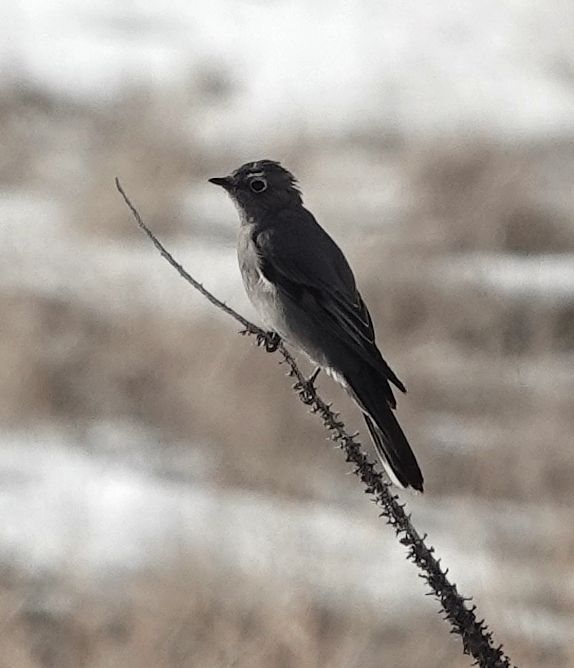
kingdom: Animalia
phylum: Chordata
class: Aves
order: Passeriformes
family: Turdidae
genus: Myadestes
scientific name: Myadestes townsendi
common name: Townsend's solitaire
